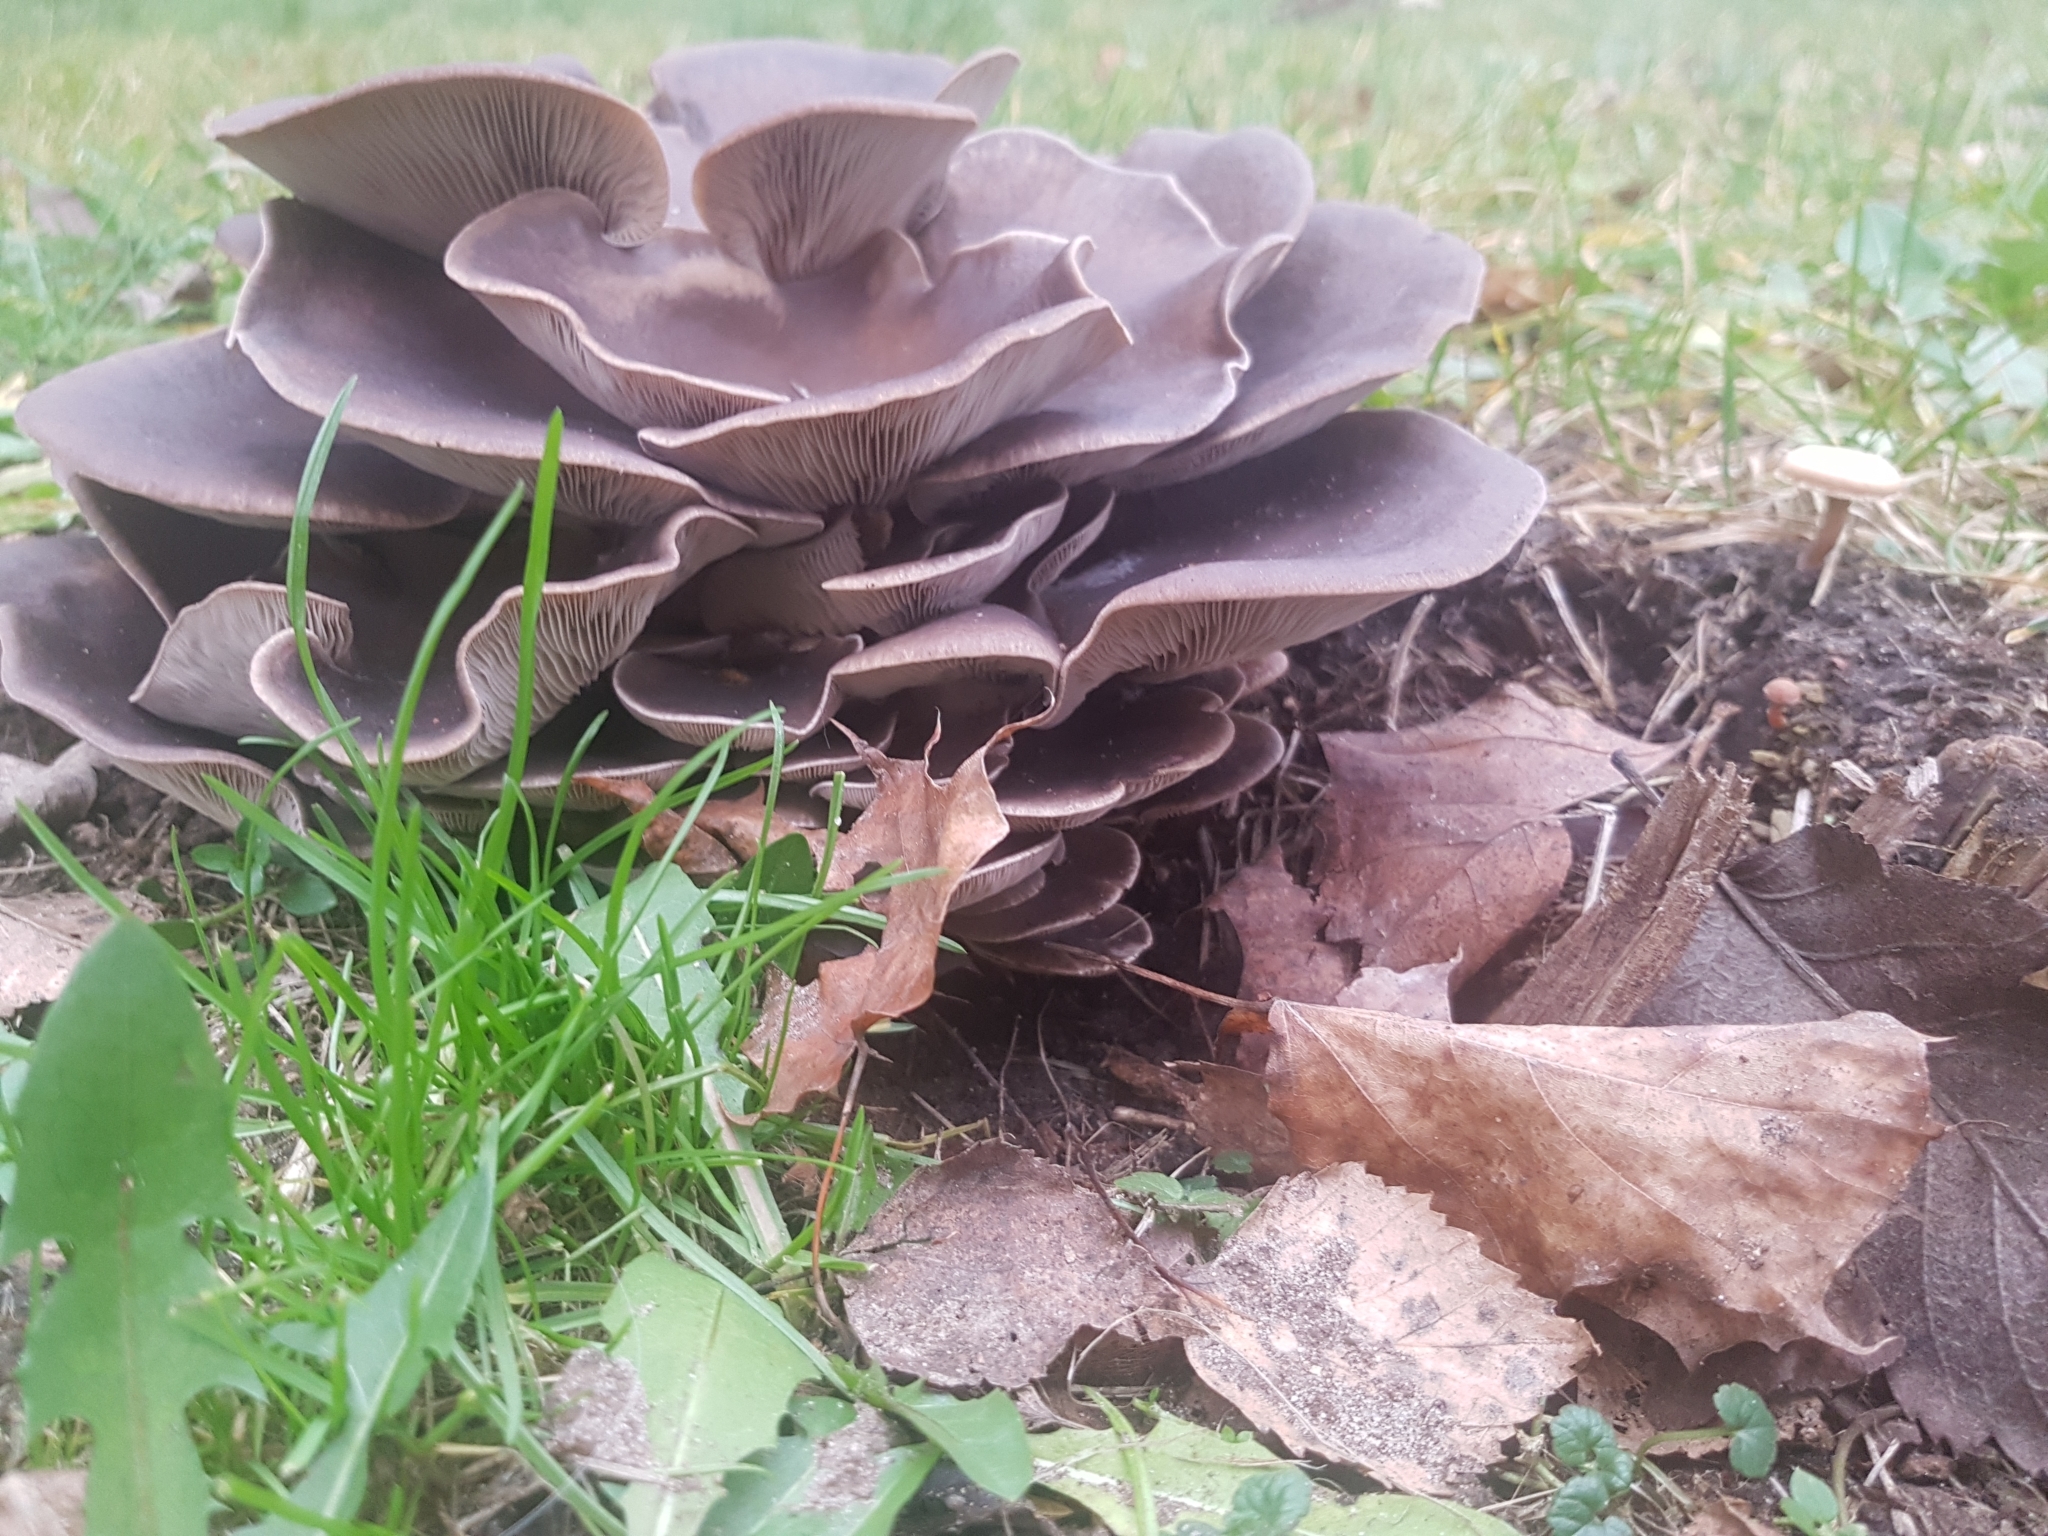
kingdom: Fungi
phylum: Basidiomycota
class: Agaricomycetes
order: Agaricales
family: Pleurotaceae
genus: Pleurotus
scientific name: Pleurotus ostreatus
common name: Oyster mushroom
